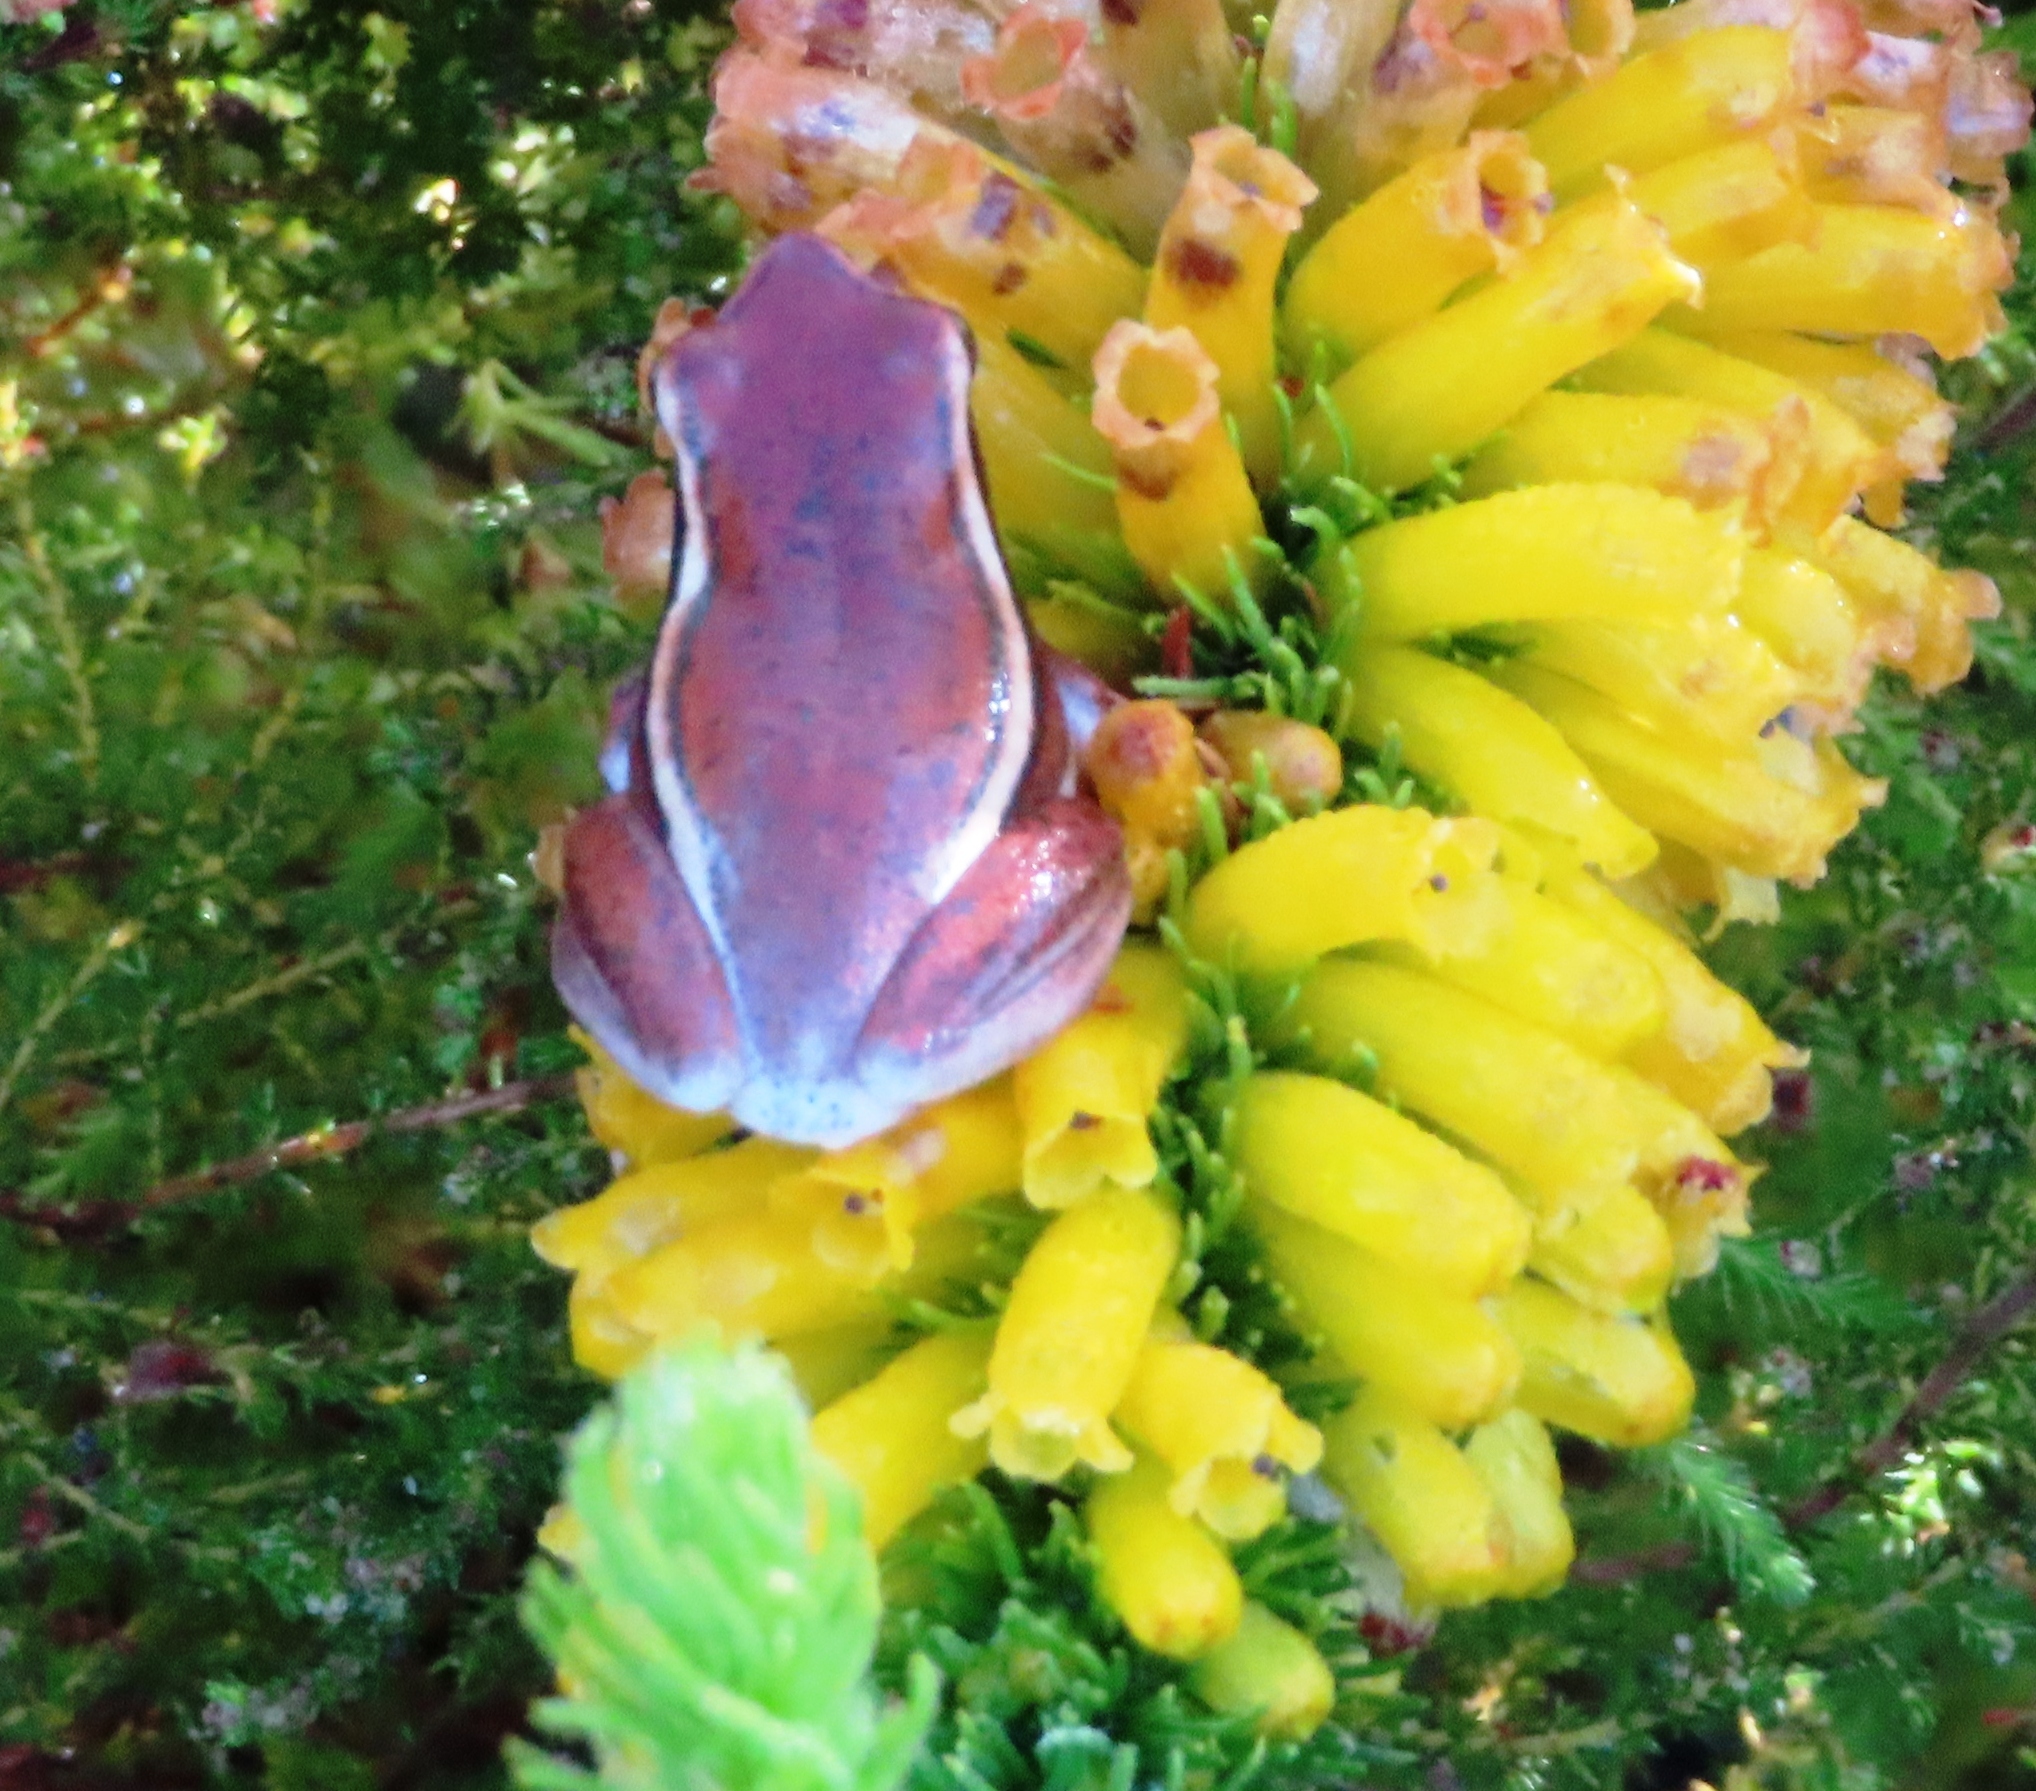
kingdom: Animalia
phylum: Chordata
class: Amphibia
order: Anura
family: Hyperoliidae
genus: Hyperolius
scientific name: Hyperolius horstockii
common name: Arum lily frog
